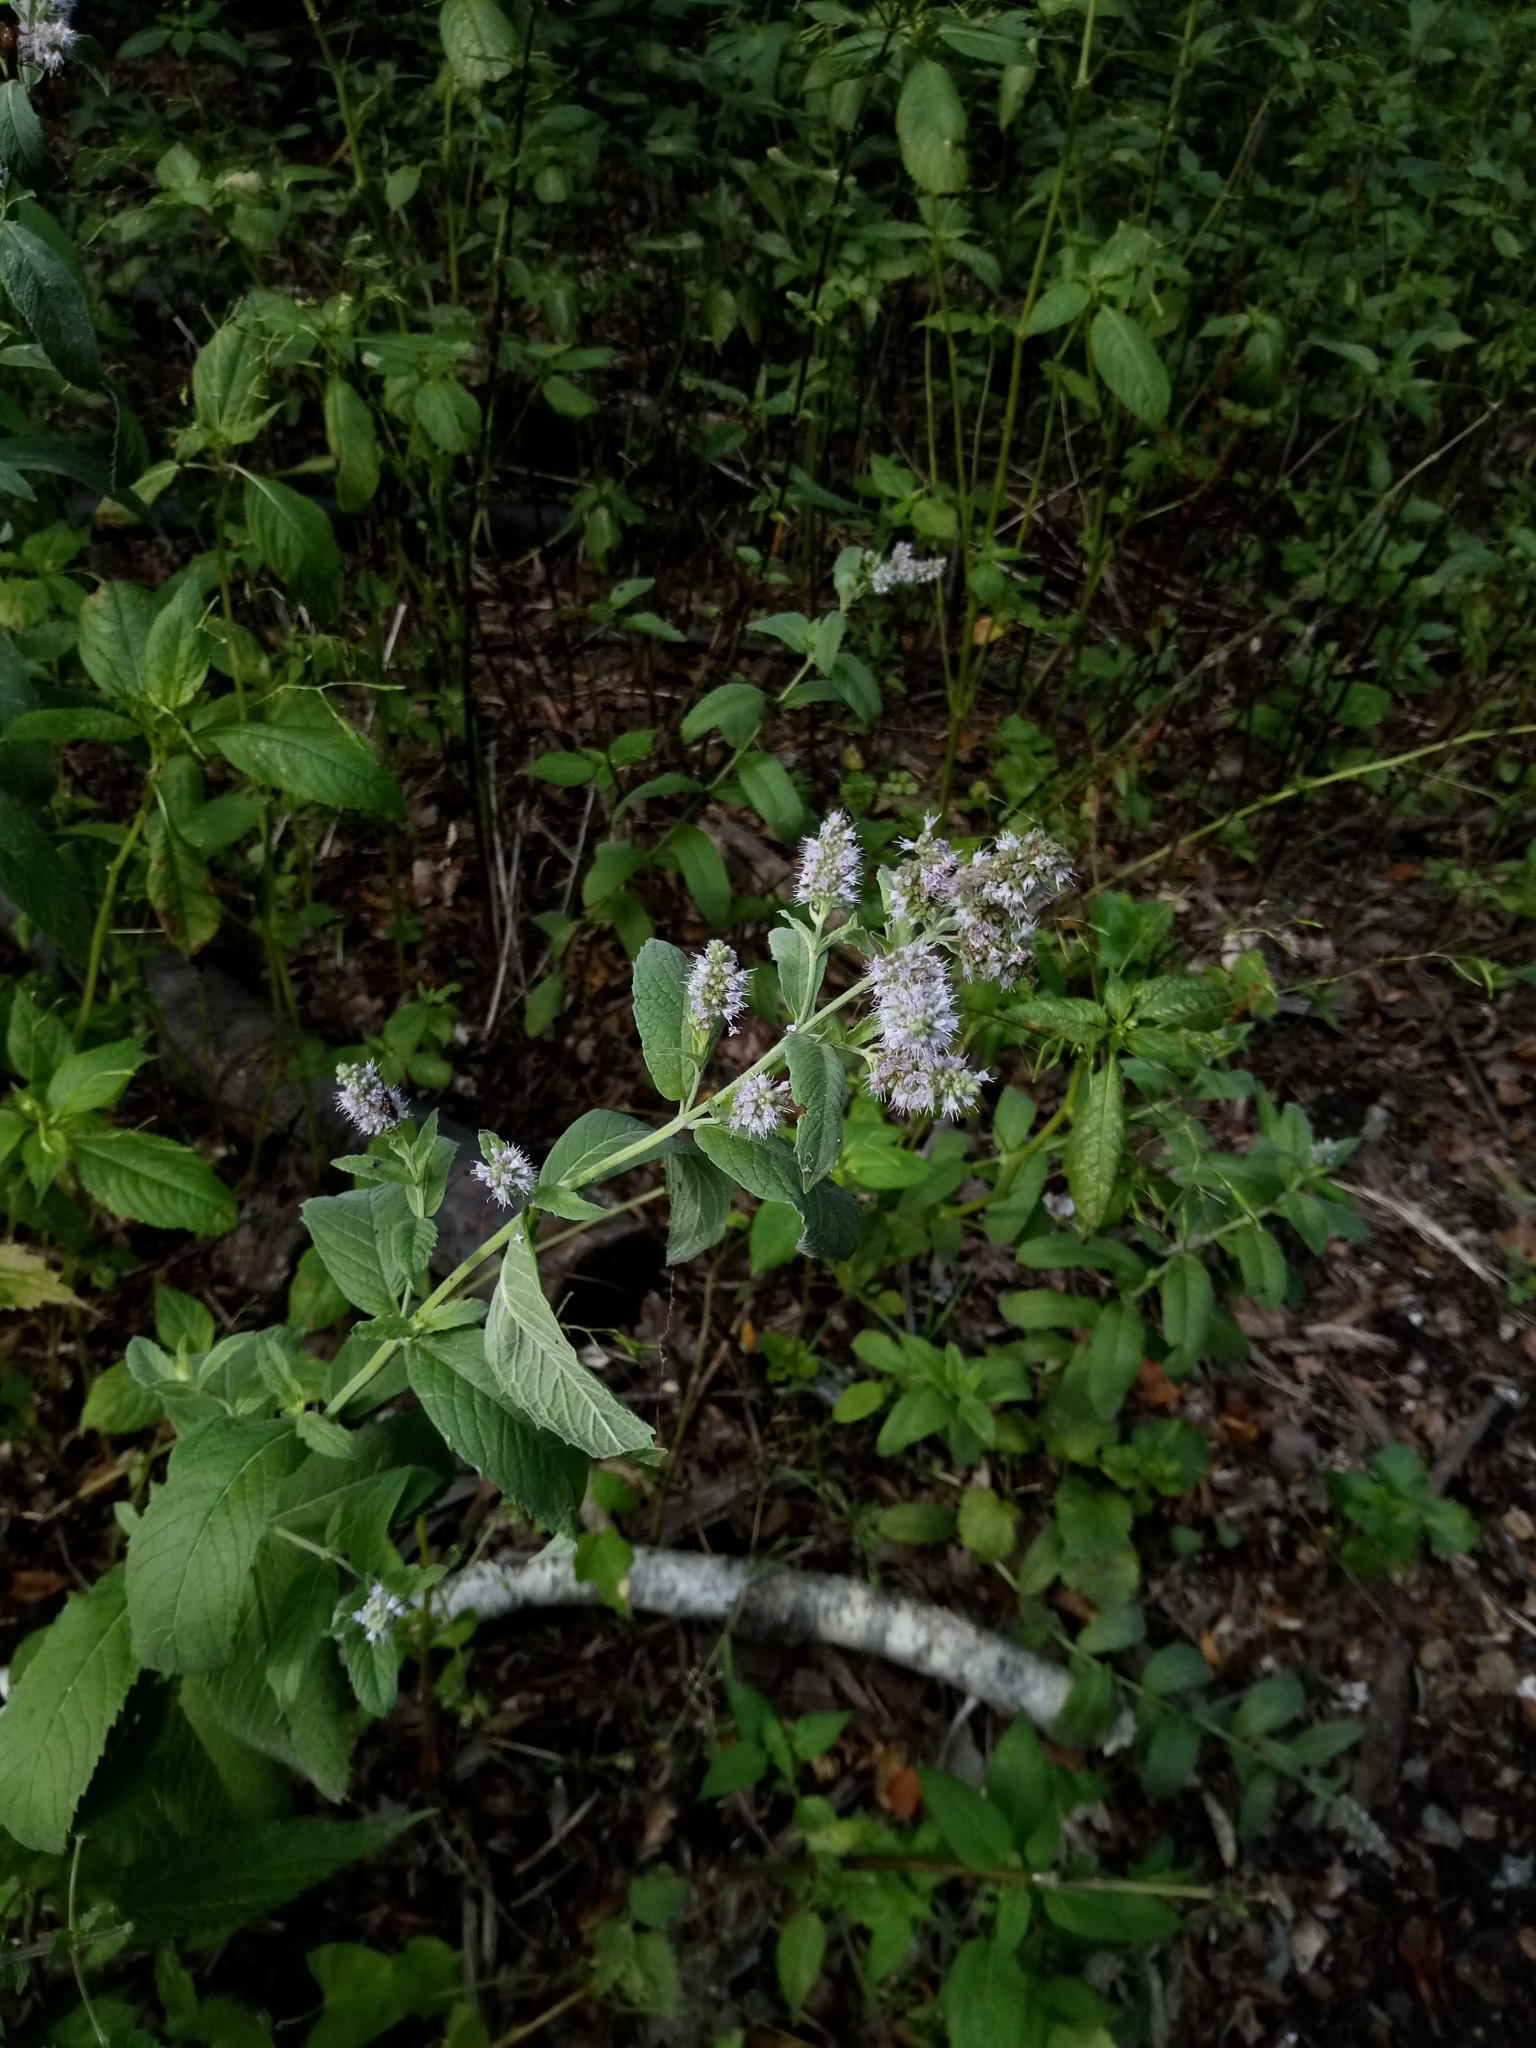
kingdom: Plantae
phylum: Tracheophyta
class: Magnoliopsida
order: Lamiales
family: Lamiaceae
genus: Mentha
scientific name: Mentha longifolia
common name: Horse mint
